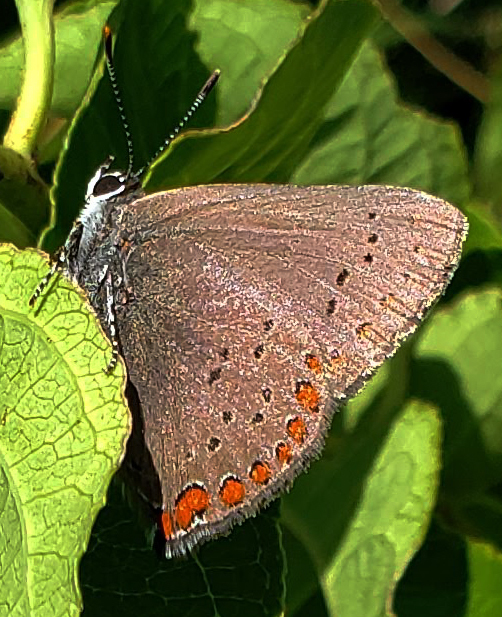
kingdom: Animalia
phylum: Arthropoda
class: Insecta
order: Lepidoptera
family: Lycaenidae
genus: Harkenclenus
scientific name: Harkenclenus titus
